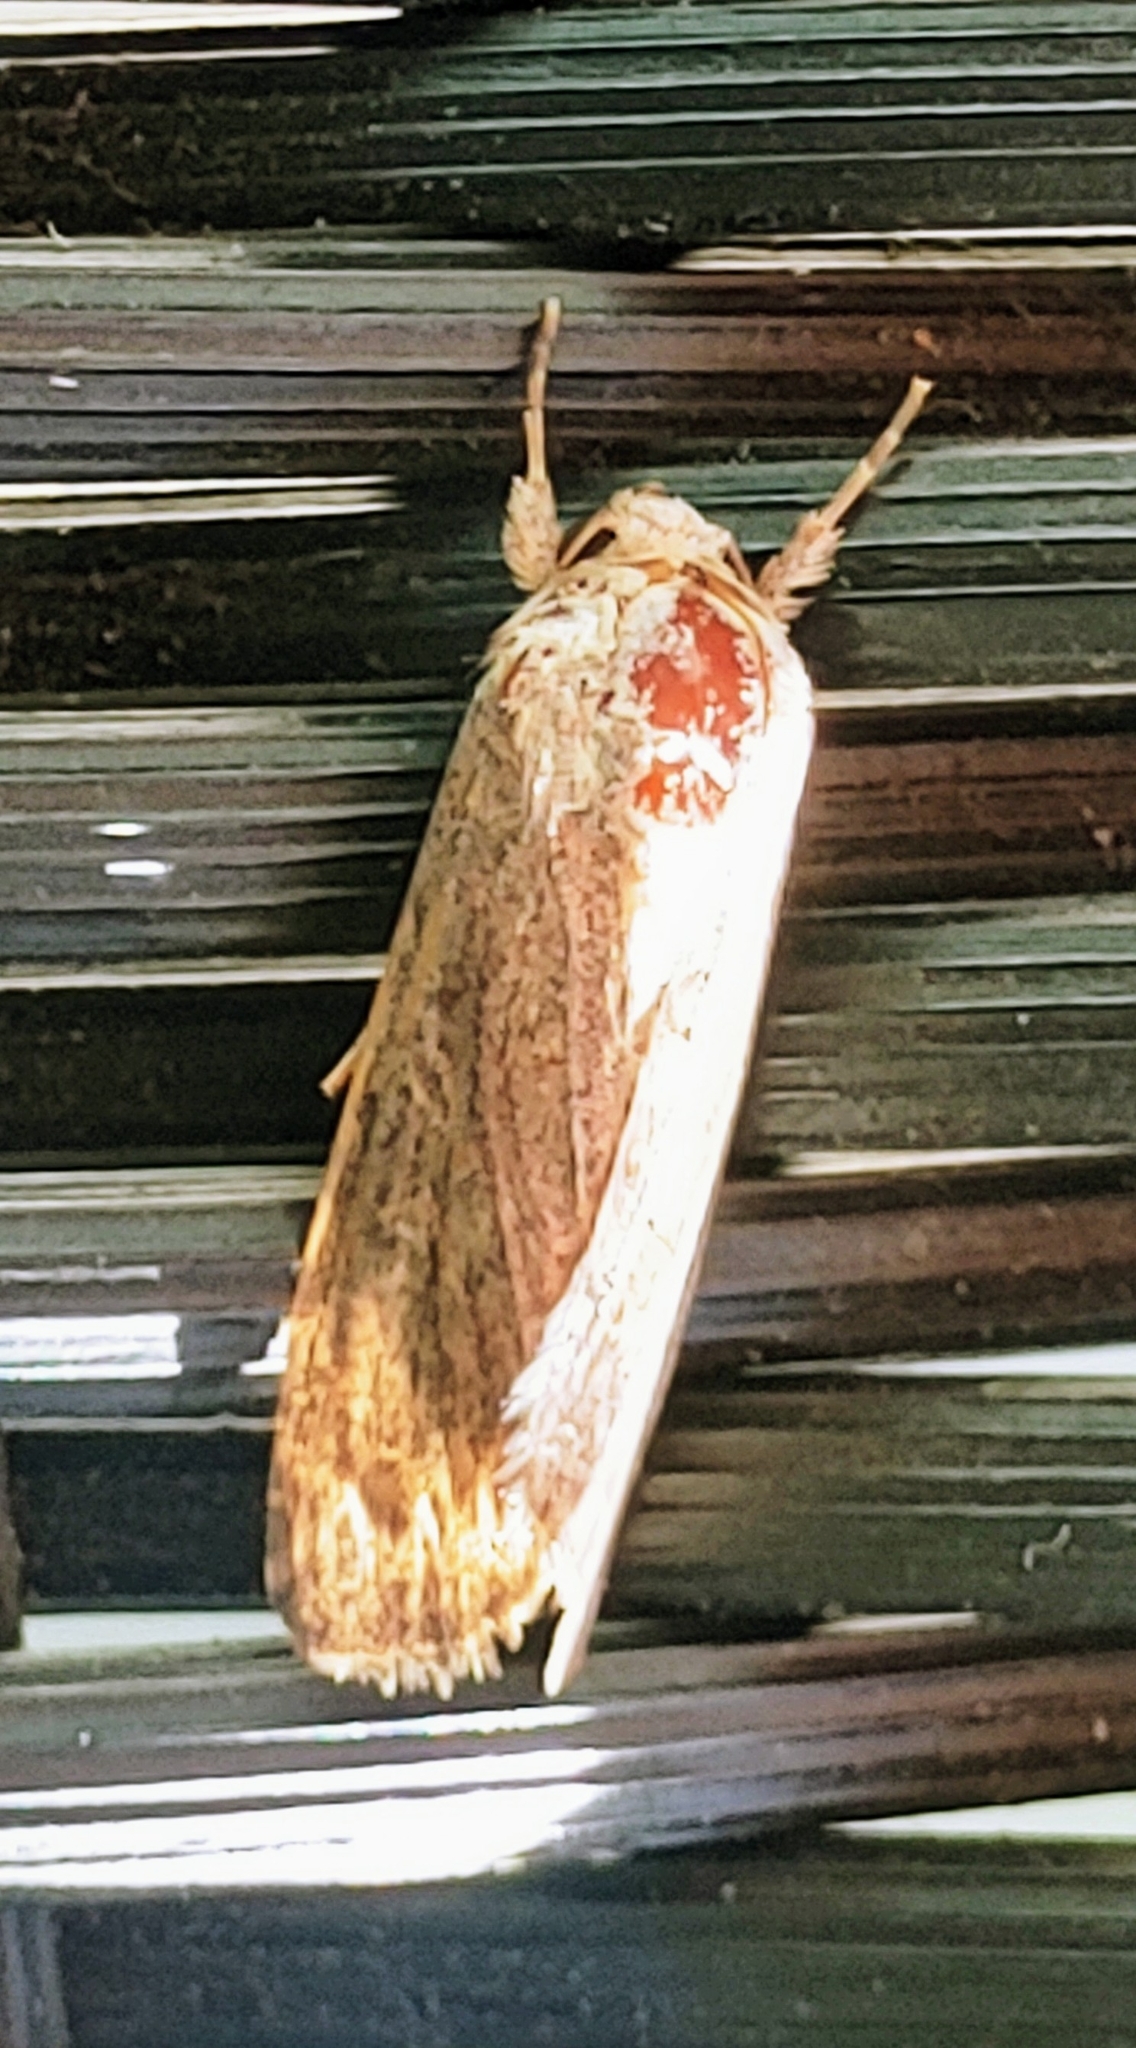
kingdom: Animalia
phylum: Arthropoda
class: Insecta
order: Lepidoptera
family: Noctuidae
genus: Spodoptera
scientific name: Spodoptera frugiperda
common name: Fall armyworm
